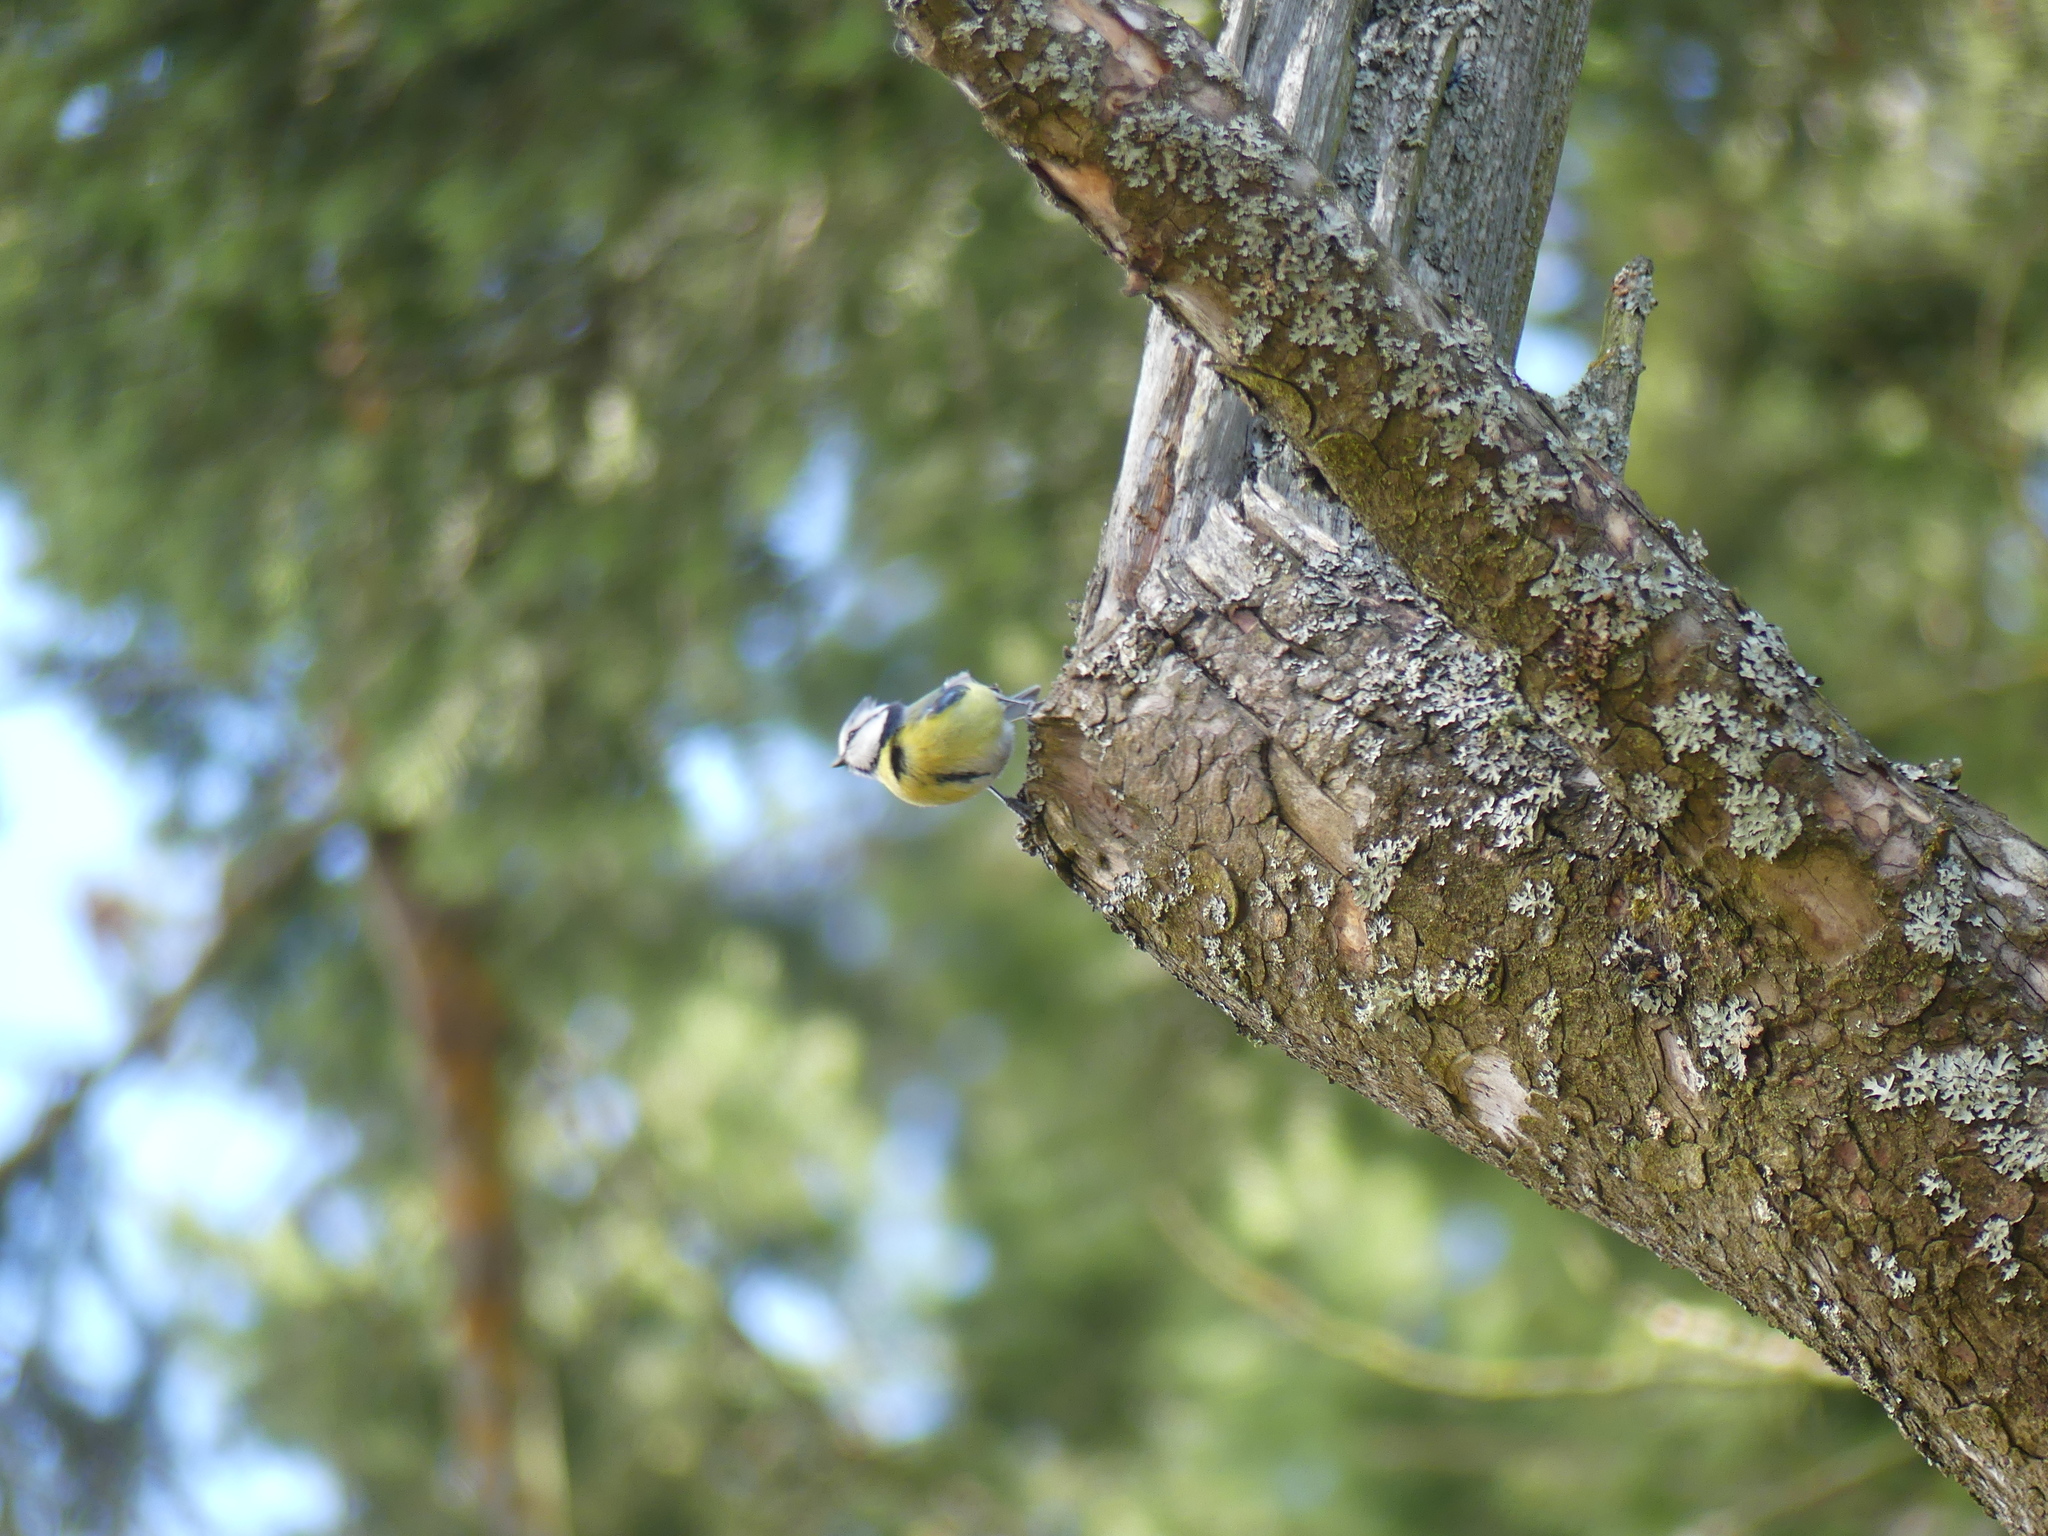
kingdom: Animalia
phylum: Chordata
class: Aves
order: Passeriformes
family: Paridae
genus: Cyanistes
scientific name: Cyanistes caeruleus
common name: Eurasian blue tit
